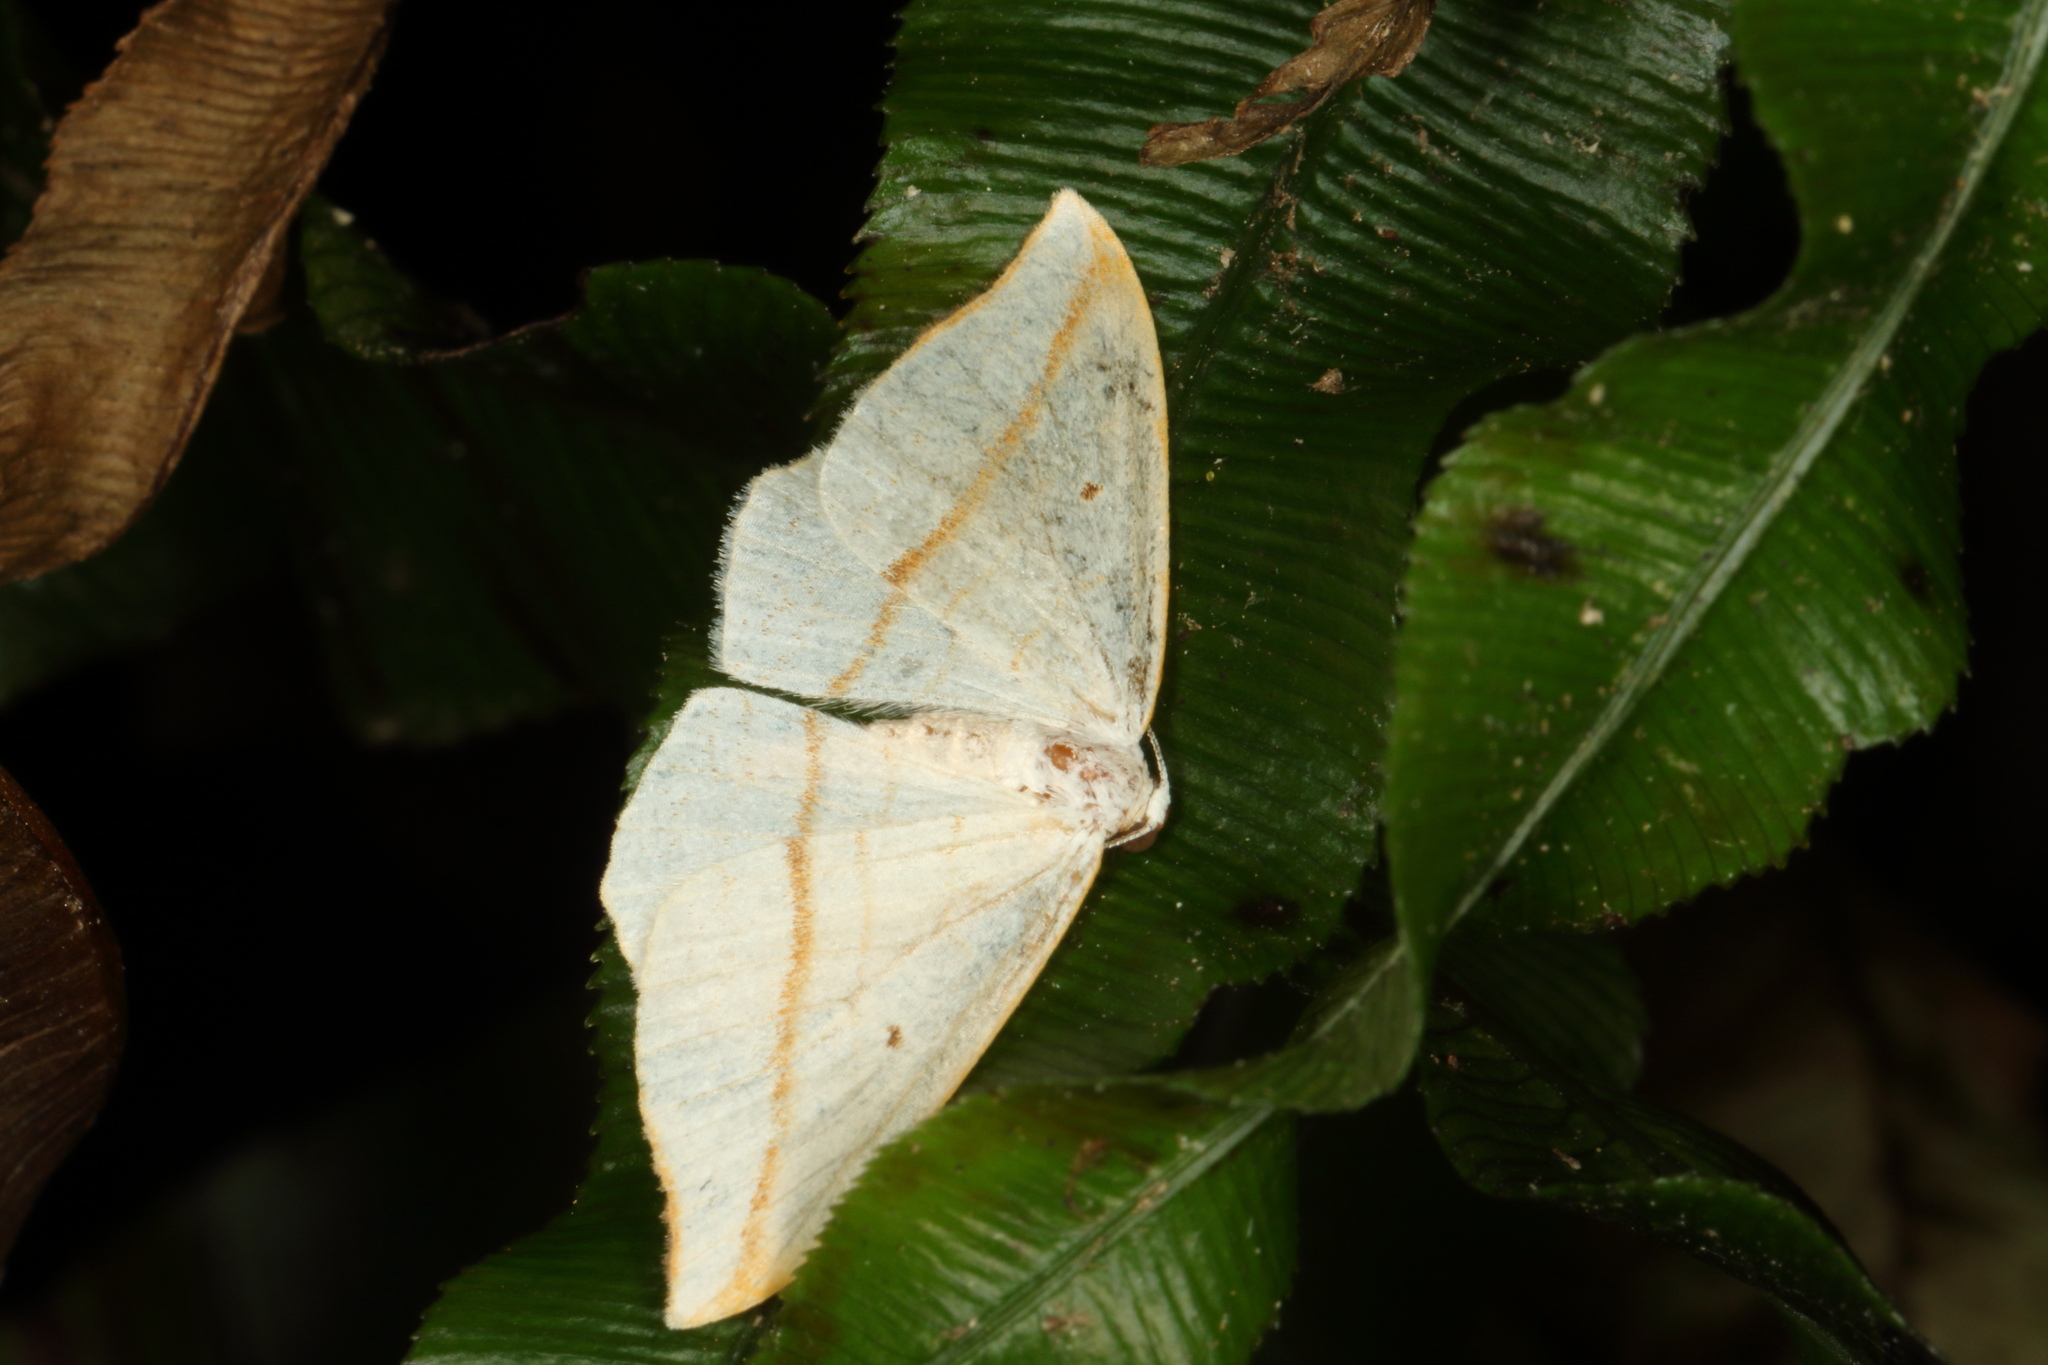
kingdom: Animalia
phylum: Arthropoda
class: Insecta
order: Lepidoptera
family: Geometridae
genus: Orthoclydon
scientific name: Orthoclydon pseudostinaria
